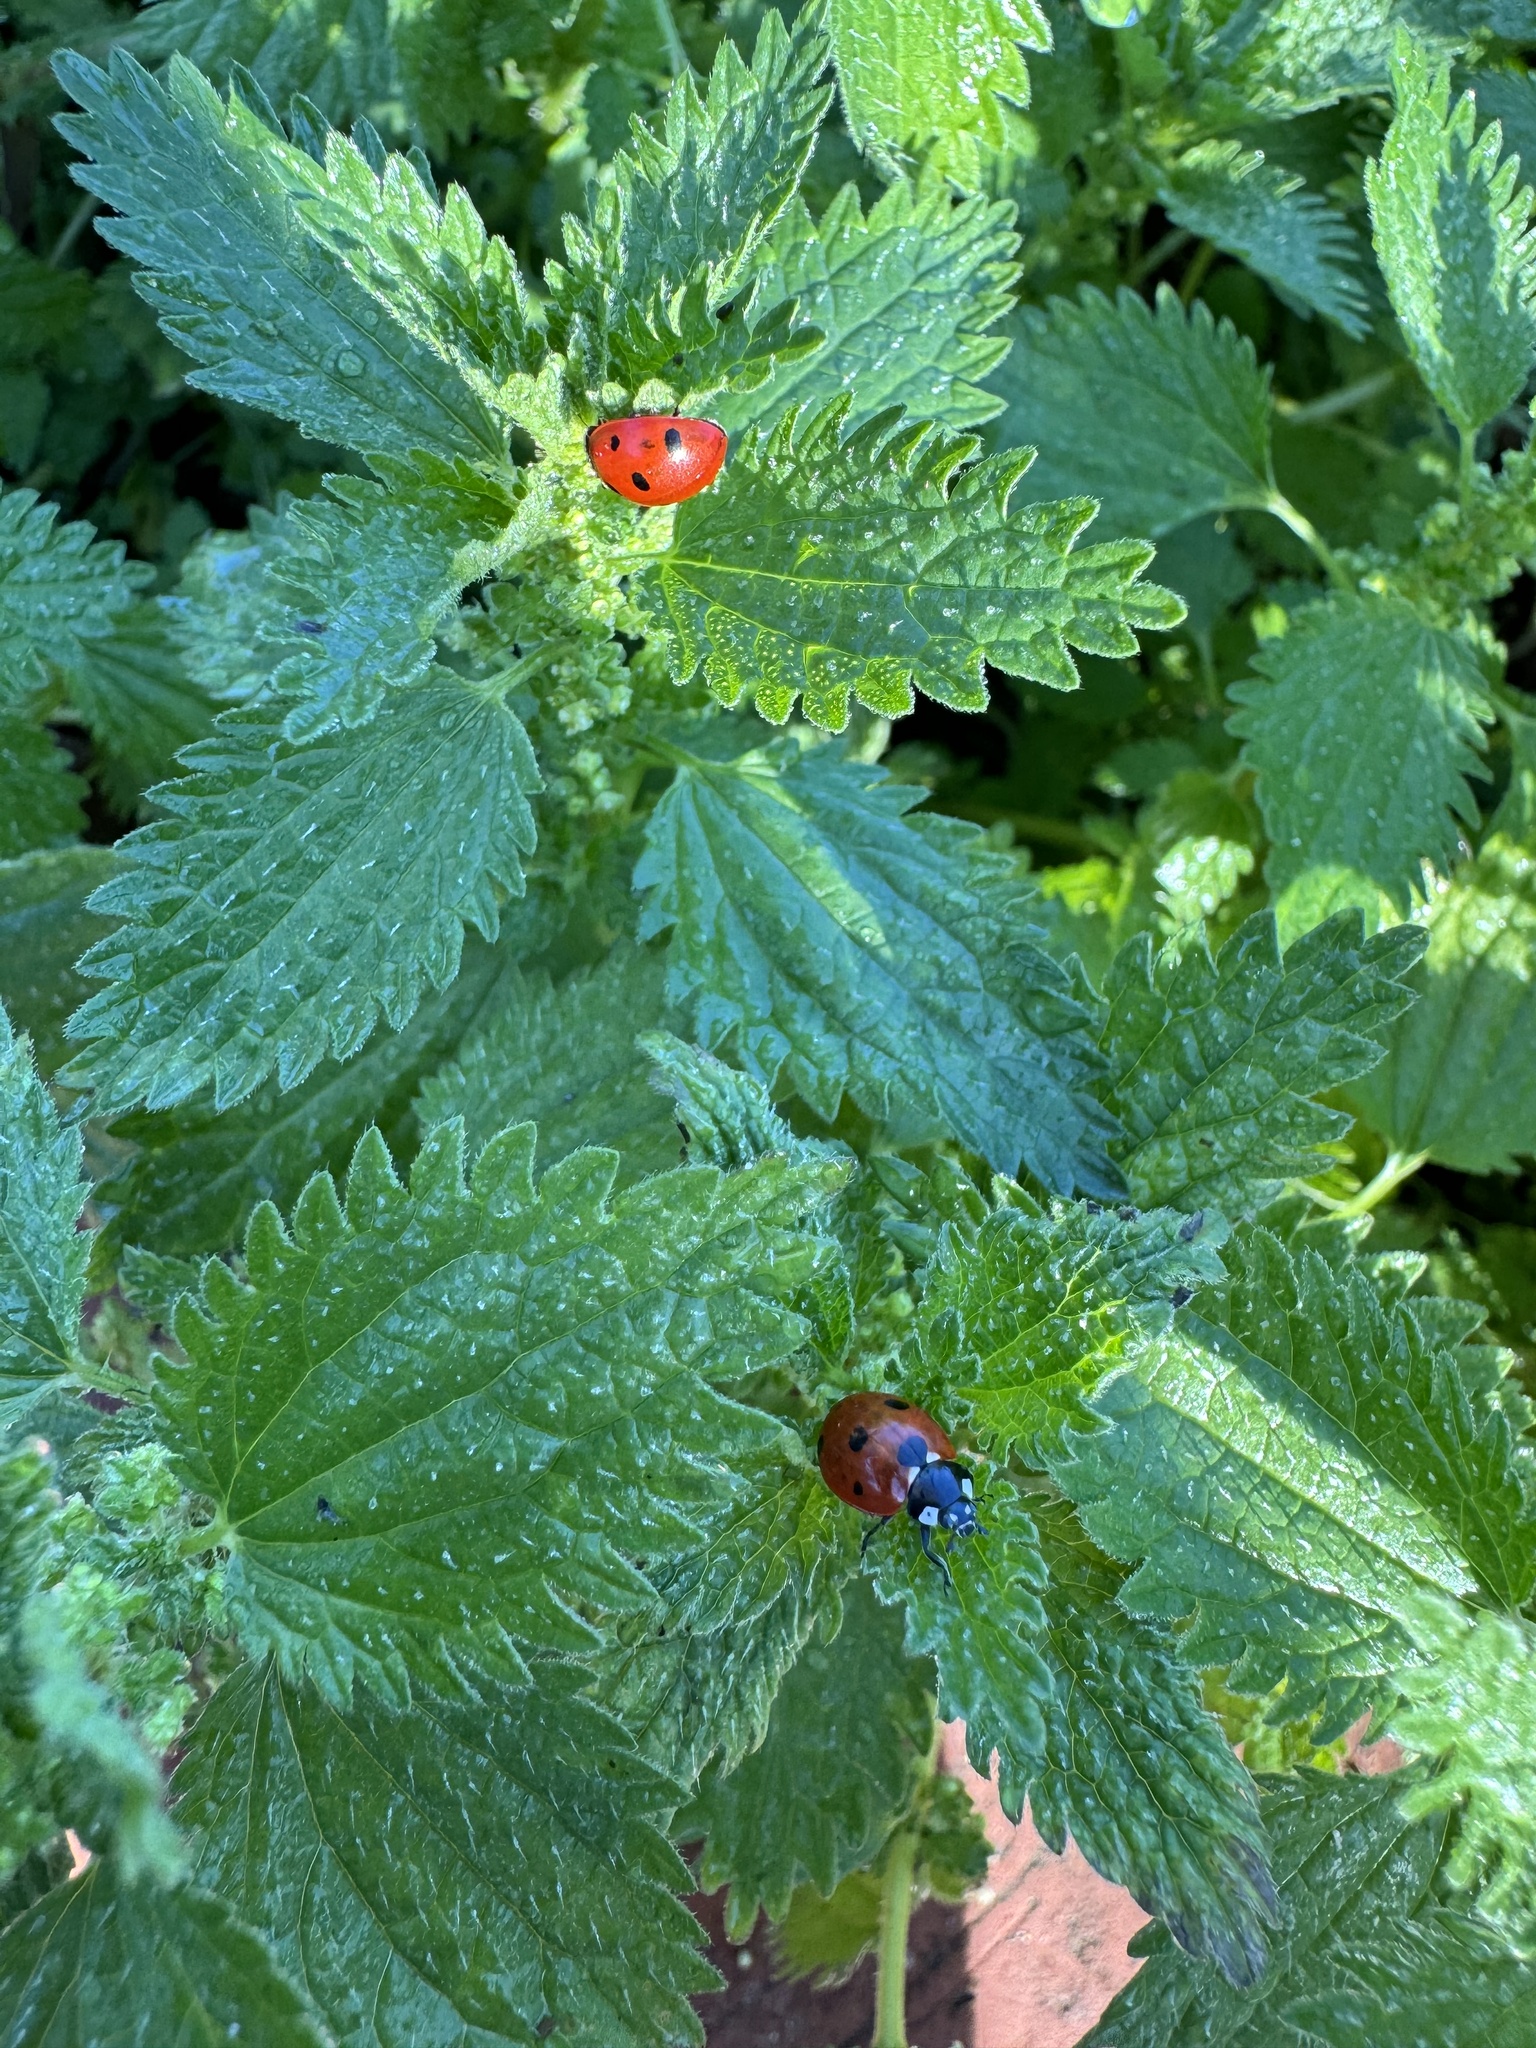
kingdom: Animalia
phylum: Arthropoda
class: Insecta
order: Coleoptera
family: Coccinellidae
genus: Coccinella
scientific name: Coccinella septempunctata
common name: Sevenspotted lady beetle
